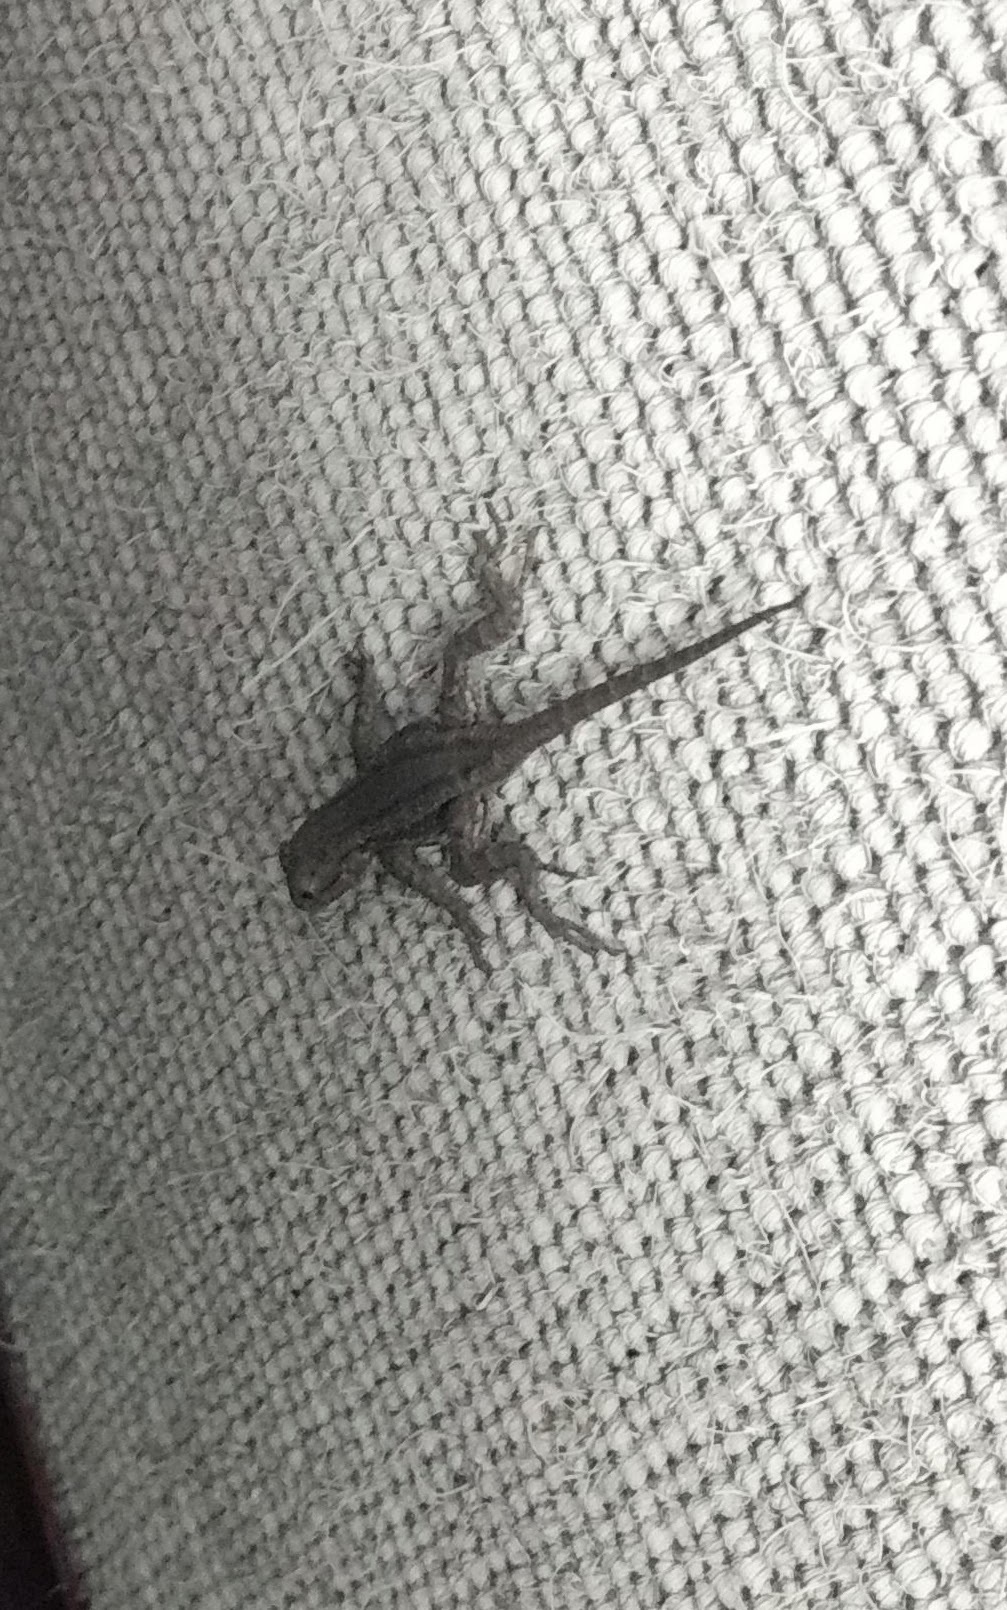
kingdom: Animalia
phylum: Chordata
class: Squamata
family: Phrynosomatidae
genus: Sceloporus
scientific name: Sceloporus occidentalis
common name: Western fence lizard
